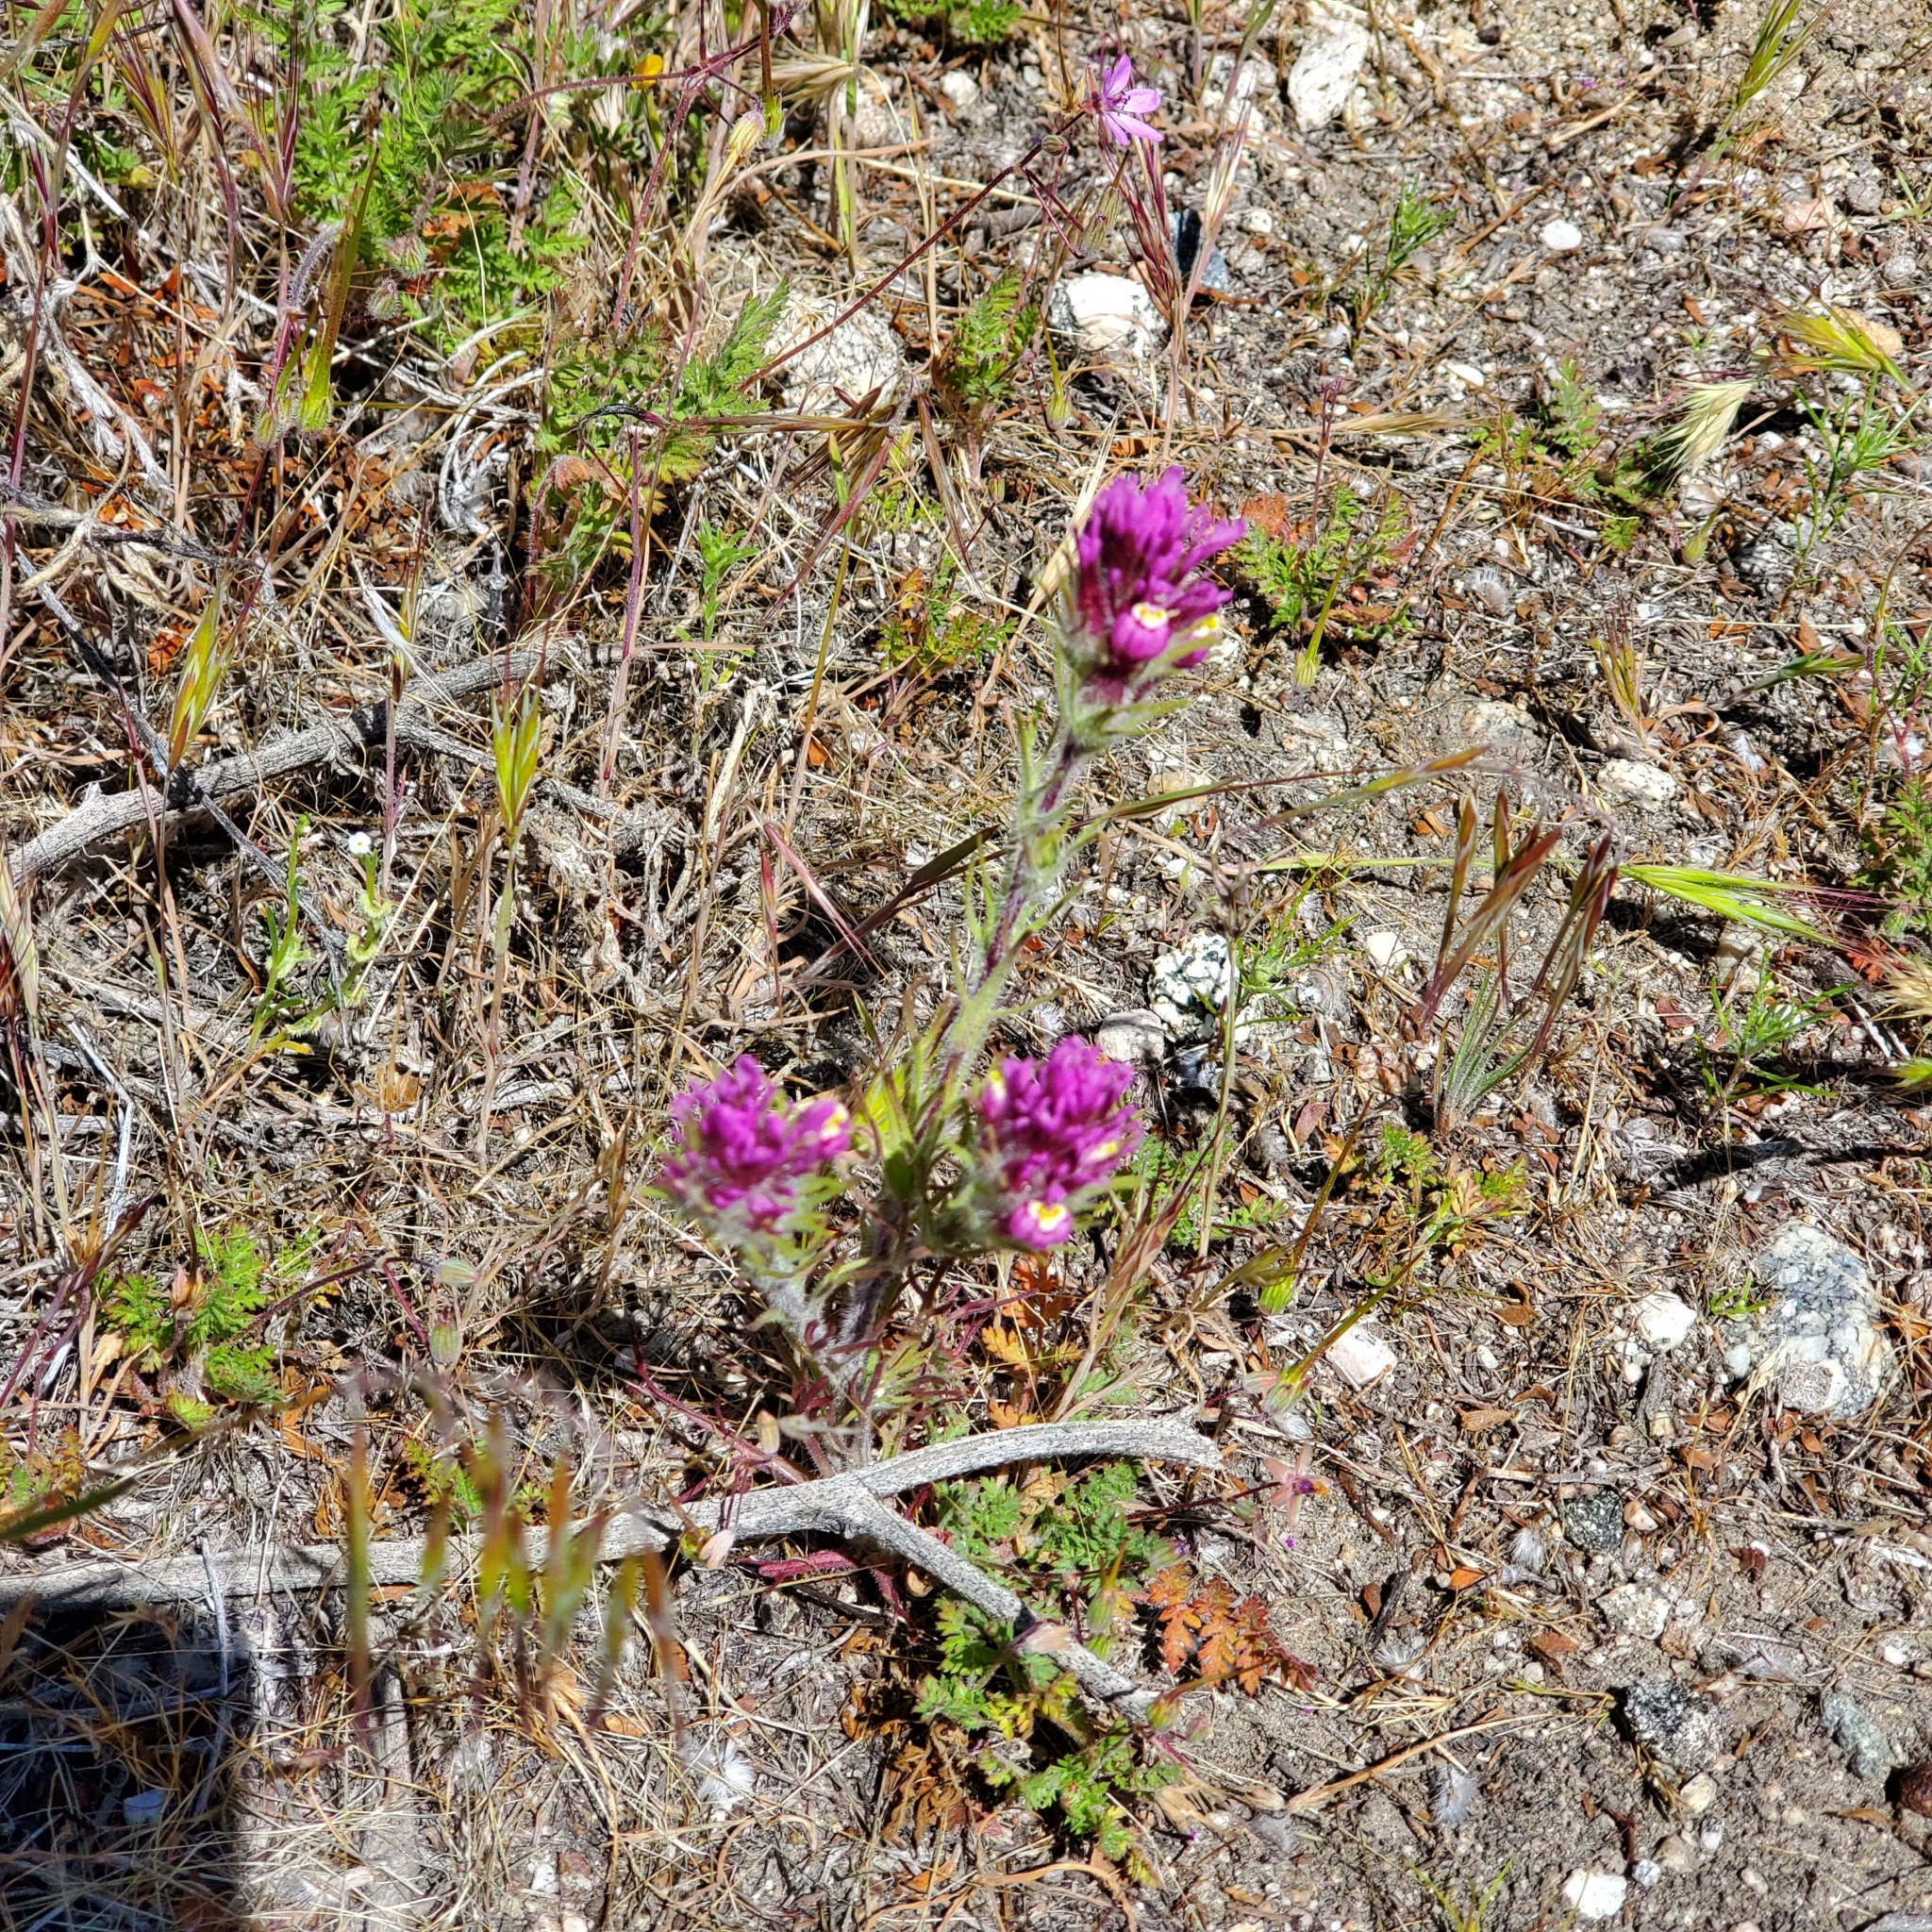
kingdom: Plantae
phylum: Tracheophyta
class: Magnoliopsida
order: Lamiales
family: Orobanchaceae
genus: Castilleja
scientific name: Castilleja exserta
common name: Purple owl-clover
